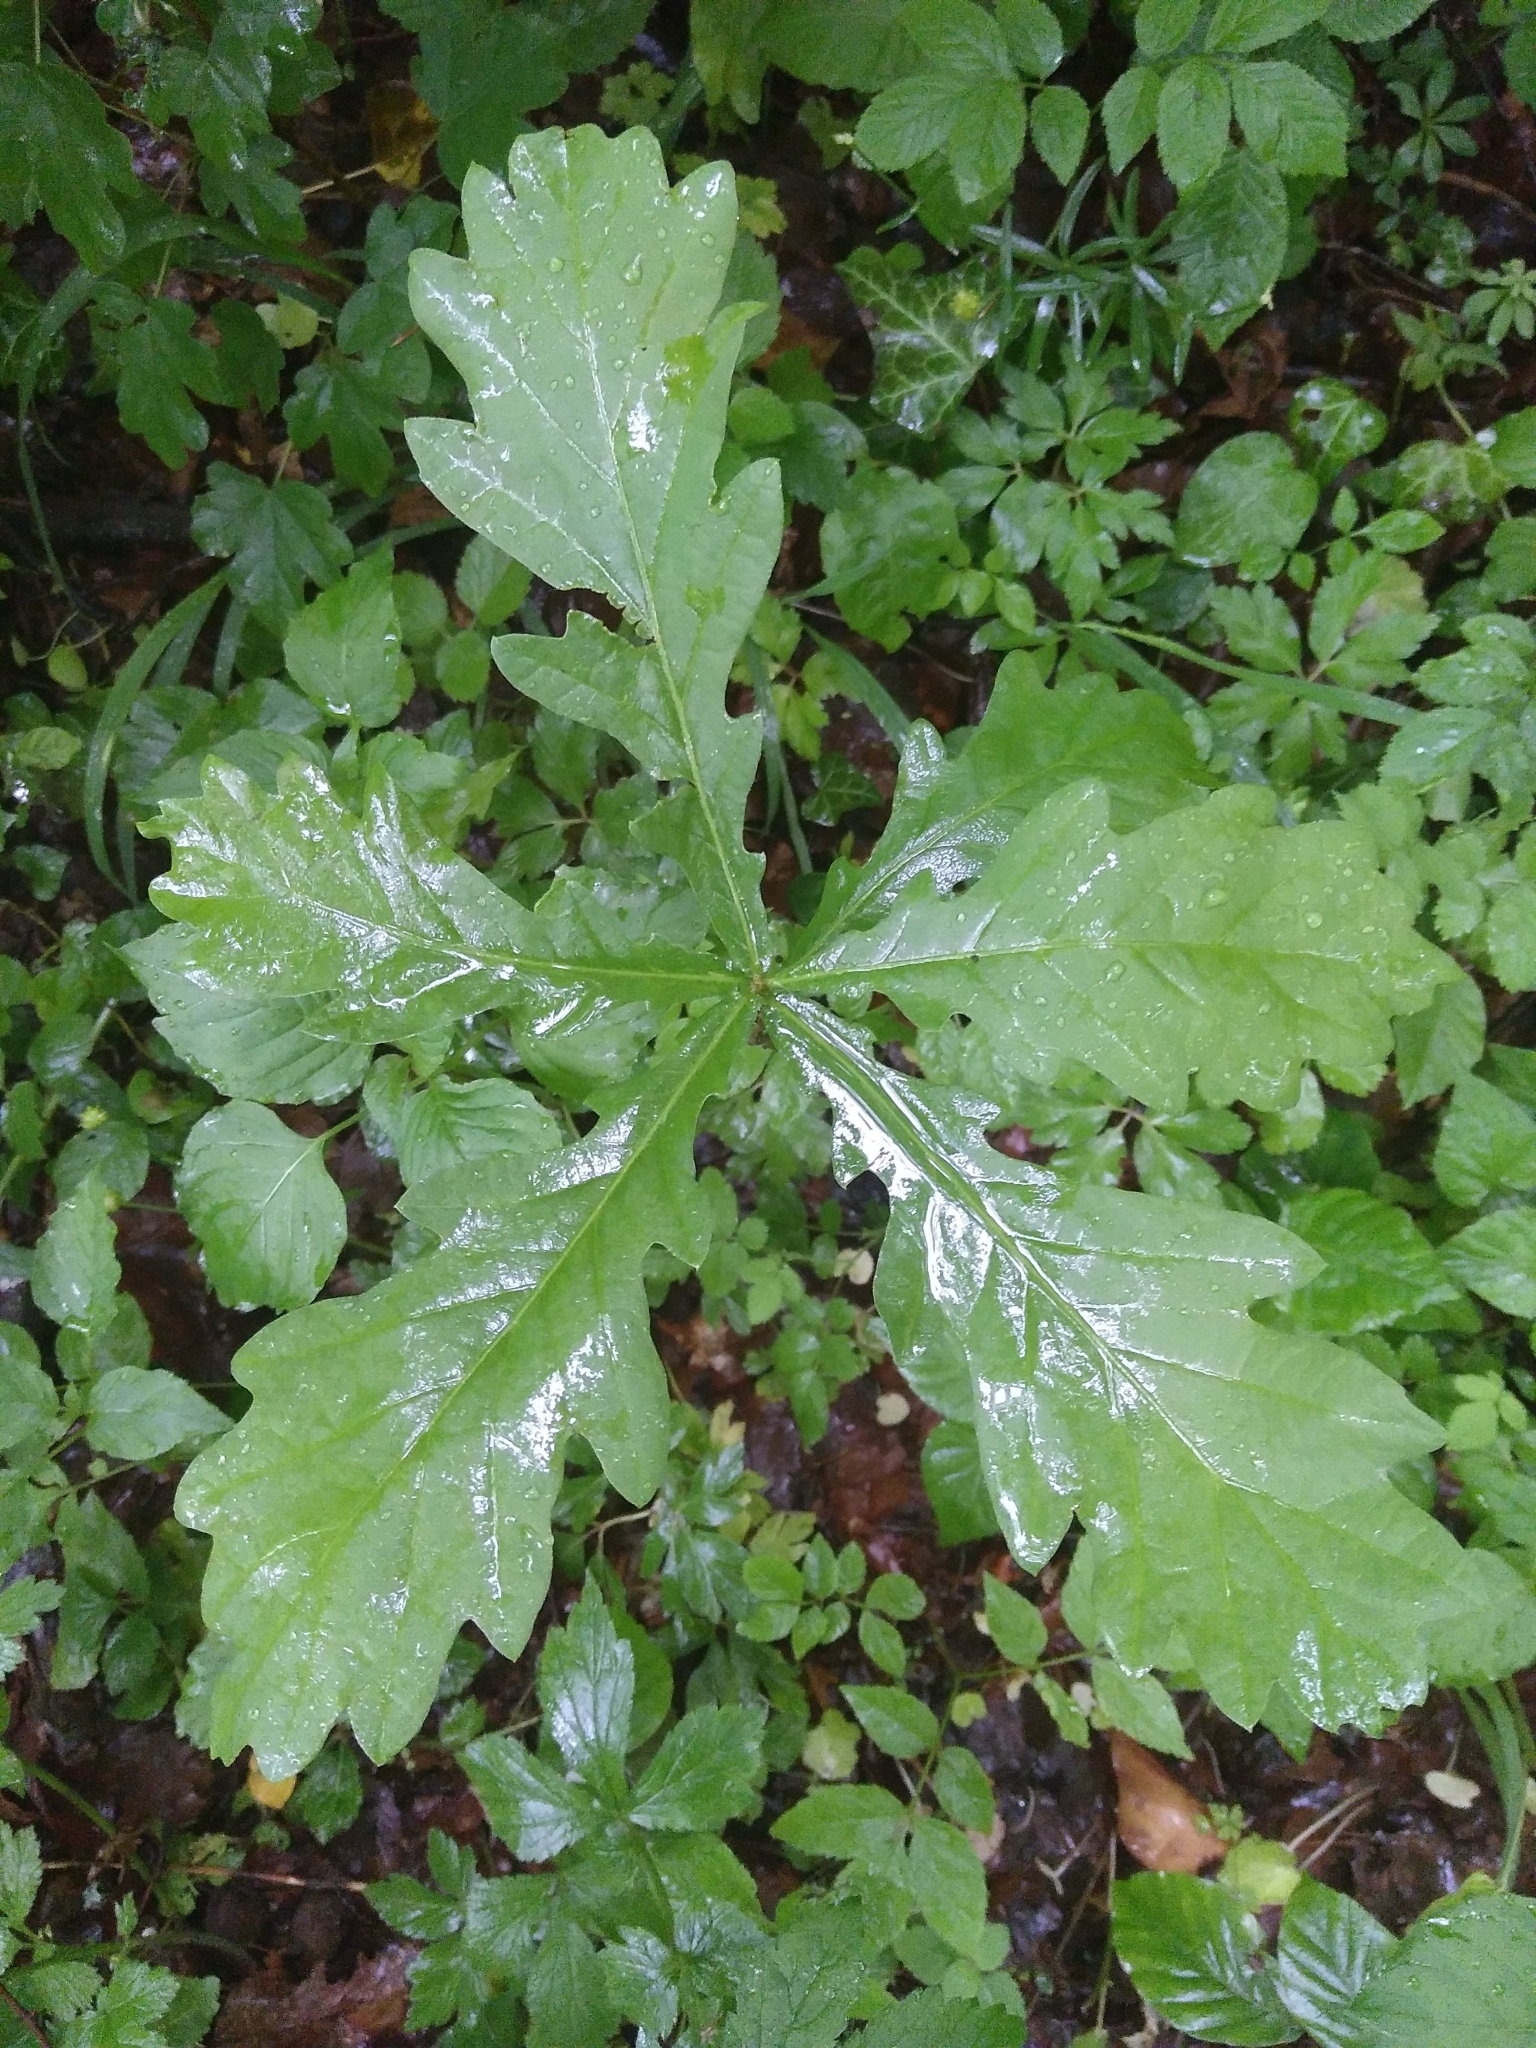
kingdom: Plantae
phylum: Tracheophyta
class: Magnoliopsida
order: Fagales
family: Fagaceae
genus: Quercus
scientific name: Quercus robur
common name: Pedunculate oak
